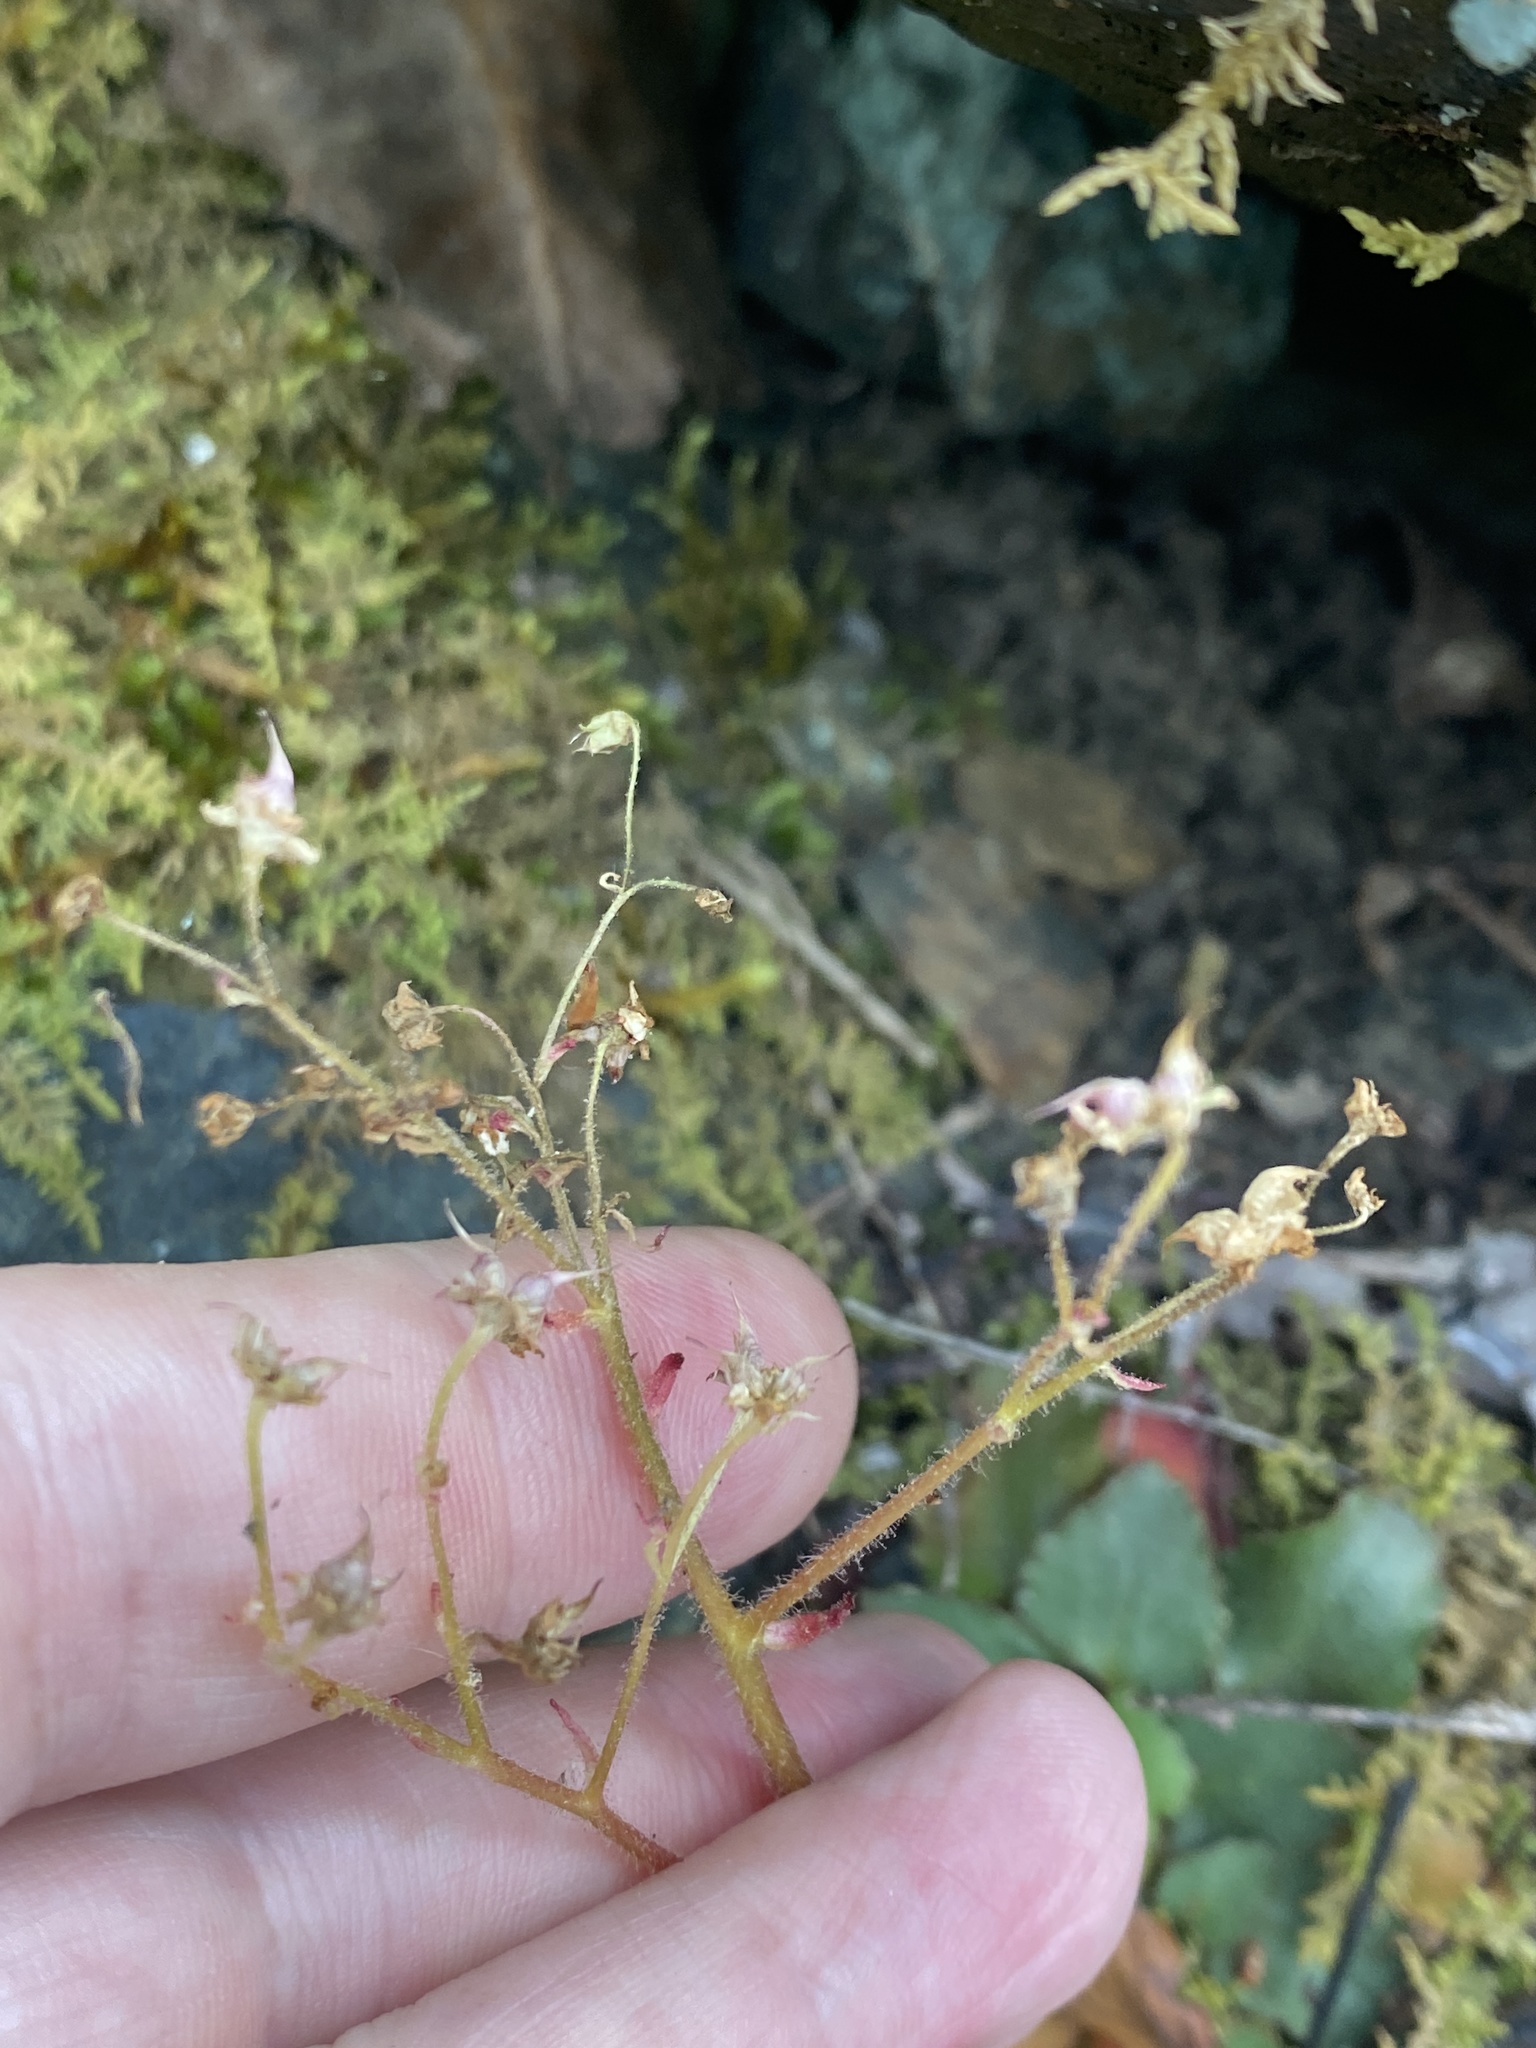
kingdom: Plantae
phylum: Tracheophyta
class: Magnoliopsida
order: Saxifragales
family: Saxifragaceae
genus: Micranthes
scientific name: Micranthes virginiensis
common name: Early saxifrage
